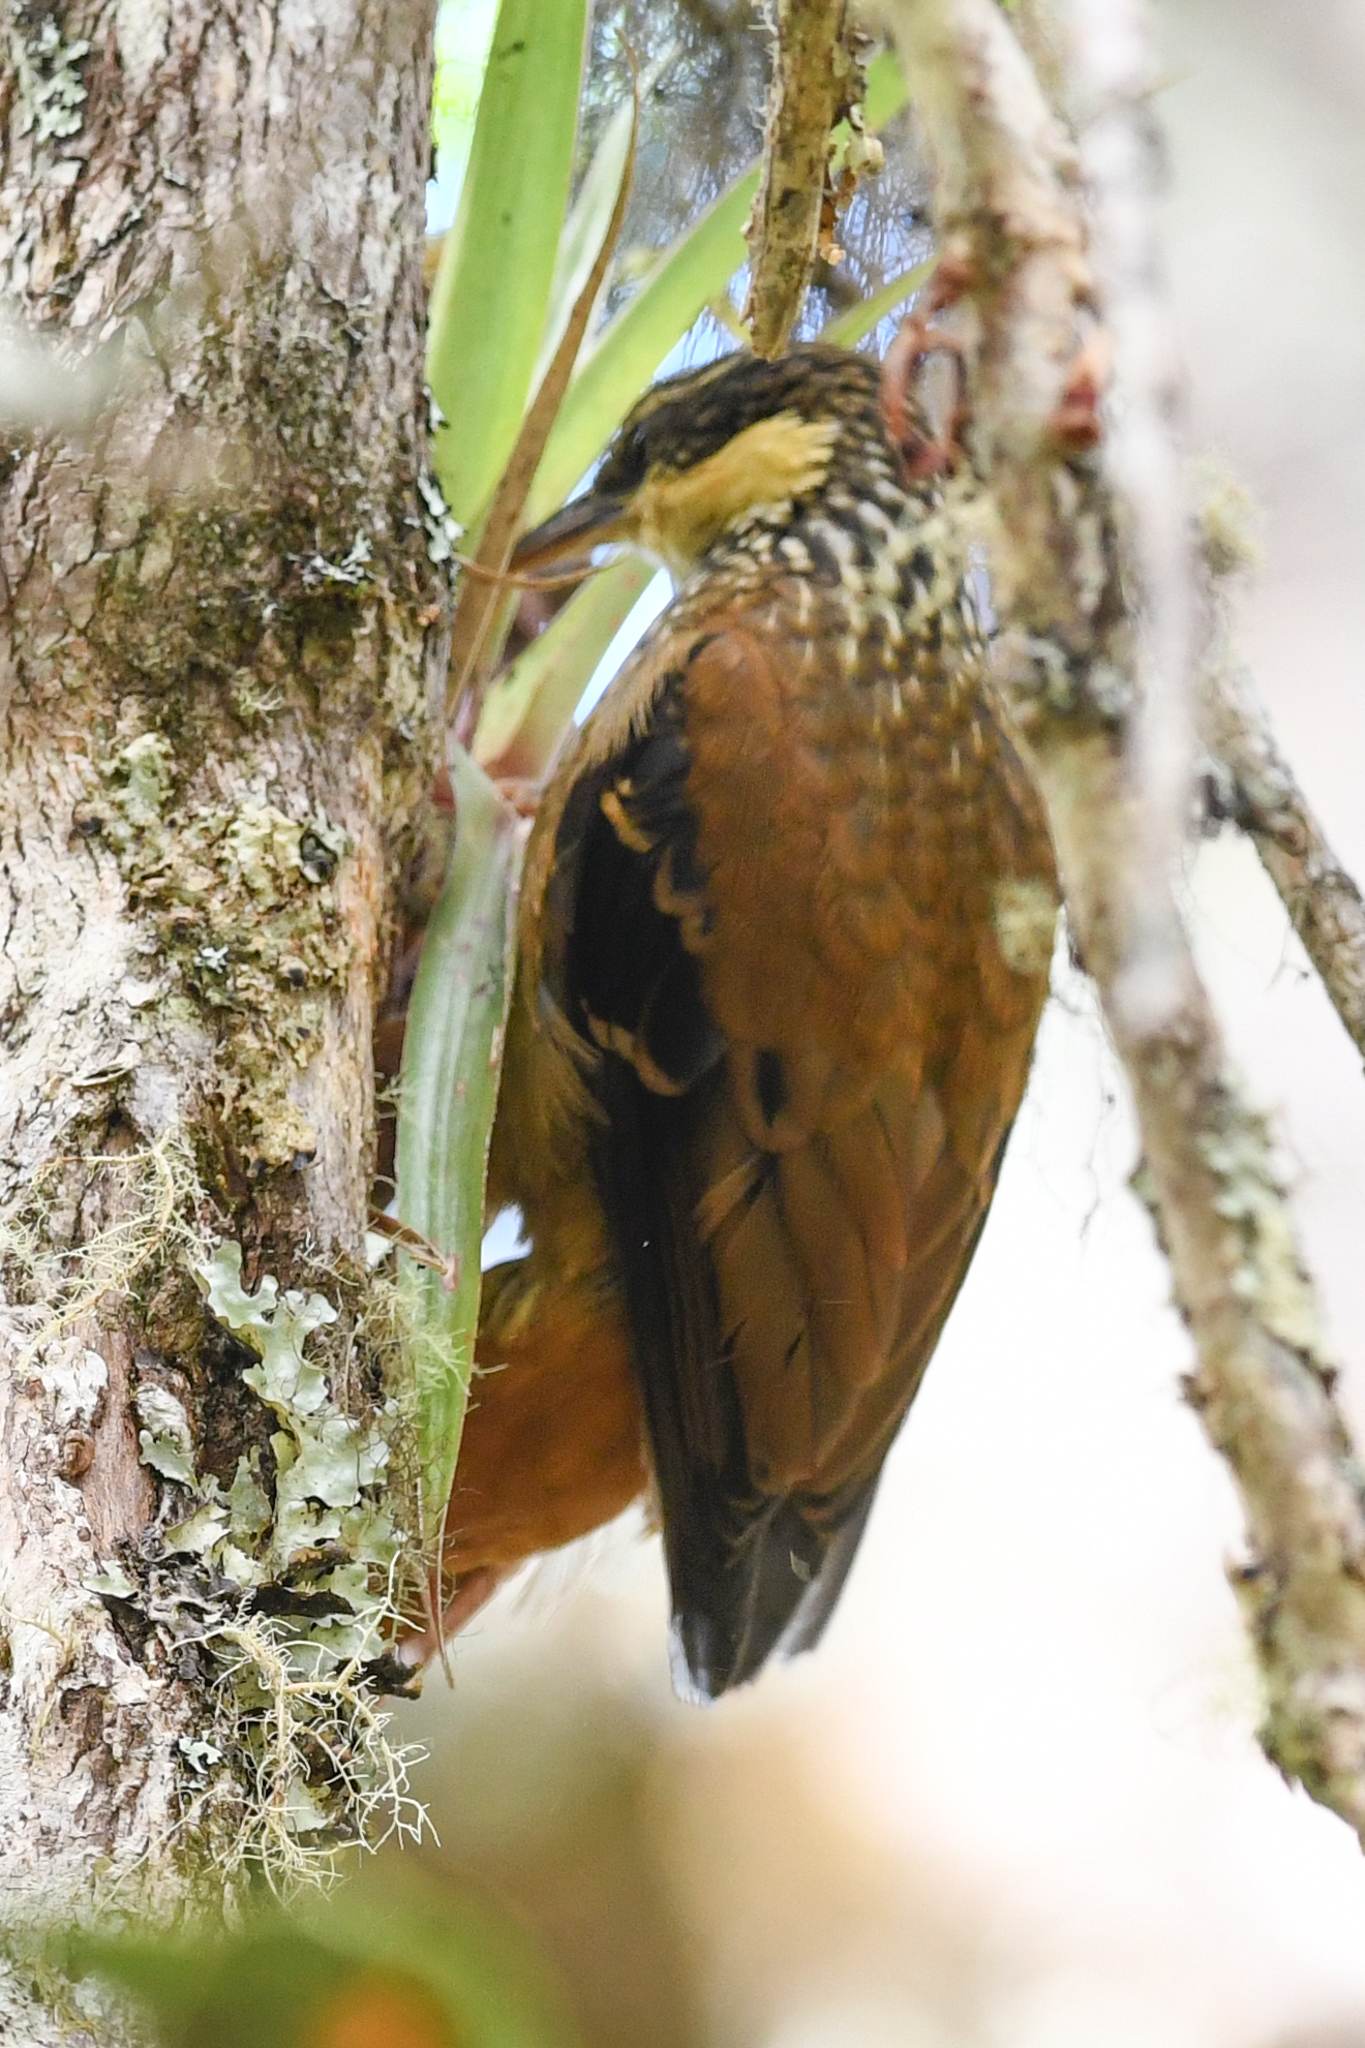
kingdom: Animalia
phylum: Chordata
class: Aves
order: Passeriformes
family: Furnariidae
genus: Pseudocolaptes
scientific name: Pseudocolaptes lawrencii
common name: Buffy tuftedcheek
